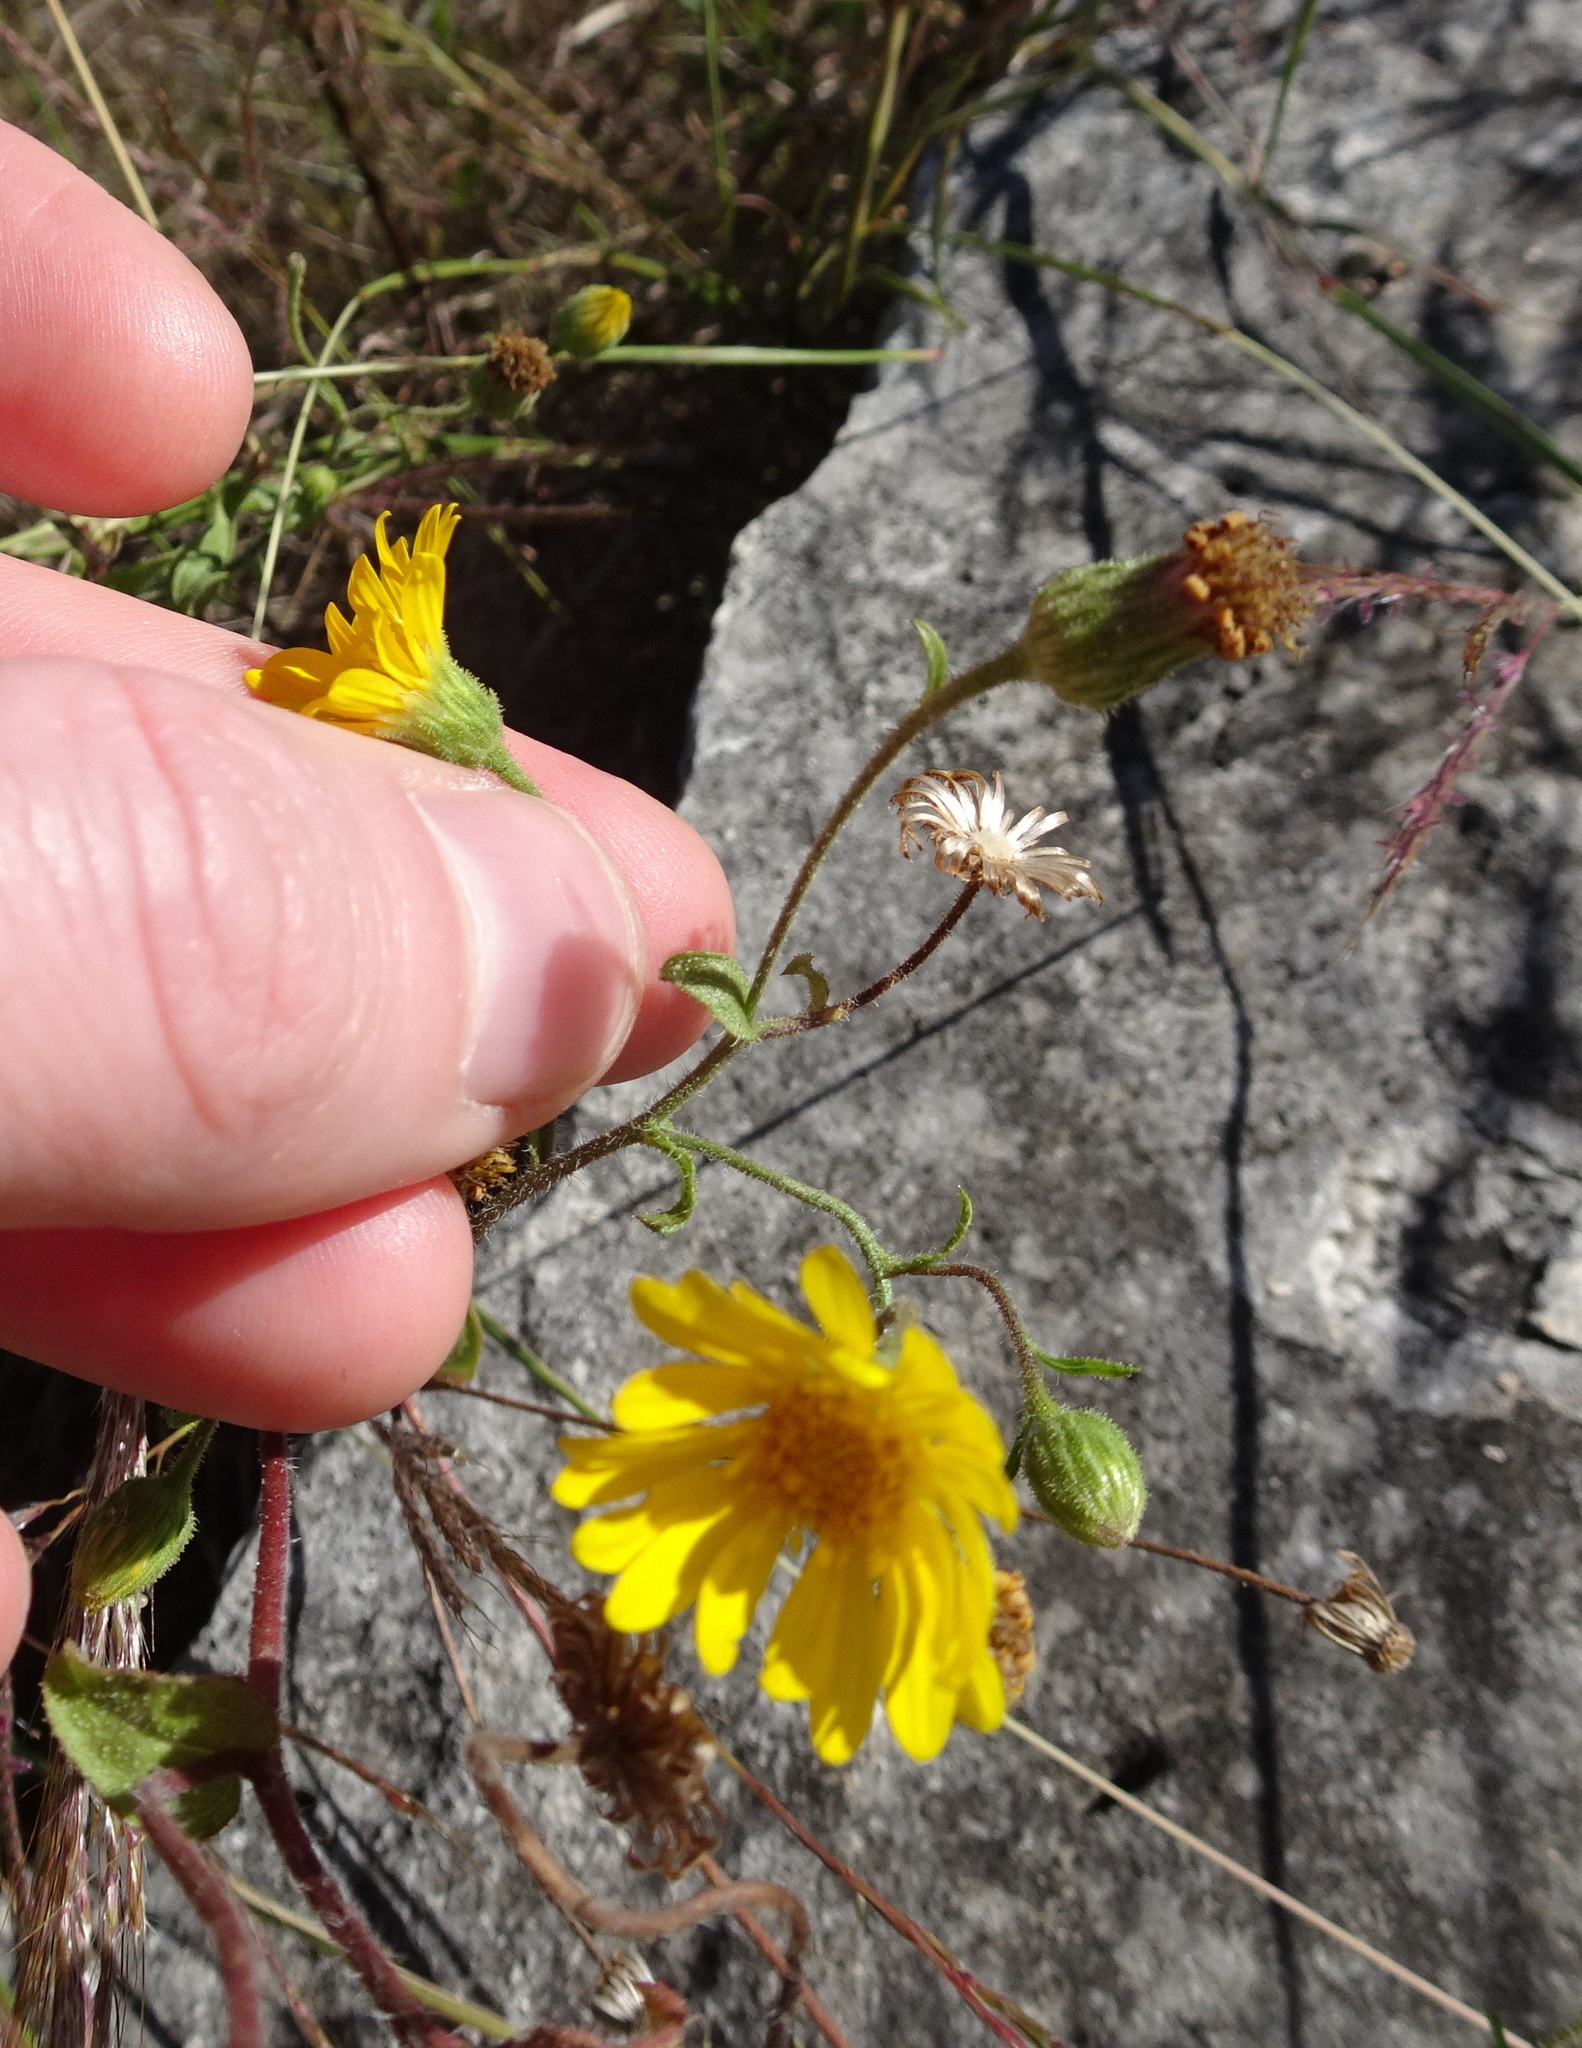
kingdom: Plantae
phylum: Tracheophyta
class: Magnoliopsida
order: Asterales
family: Asteraceae
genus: Heterotheca
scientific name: Heterotheca subaxillaris
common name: Camphorweed
